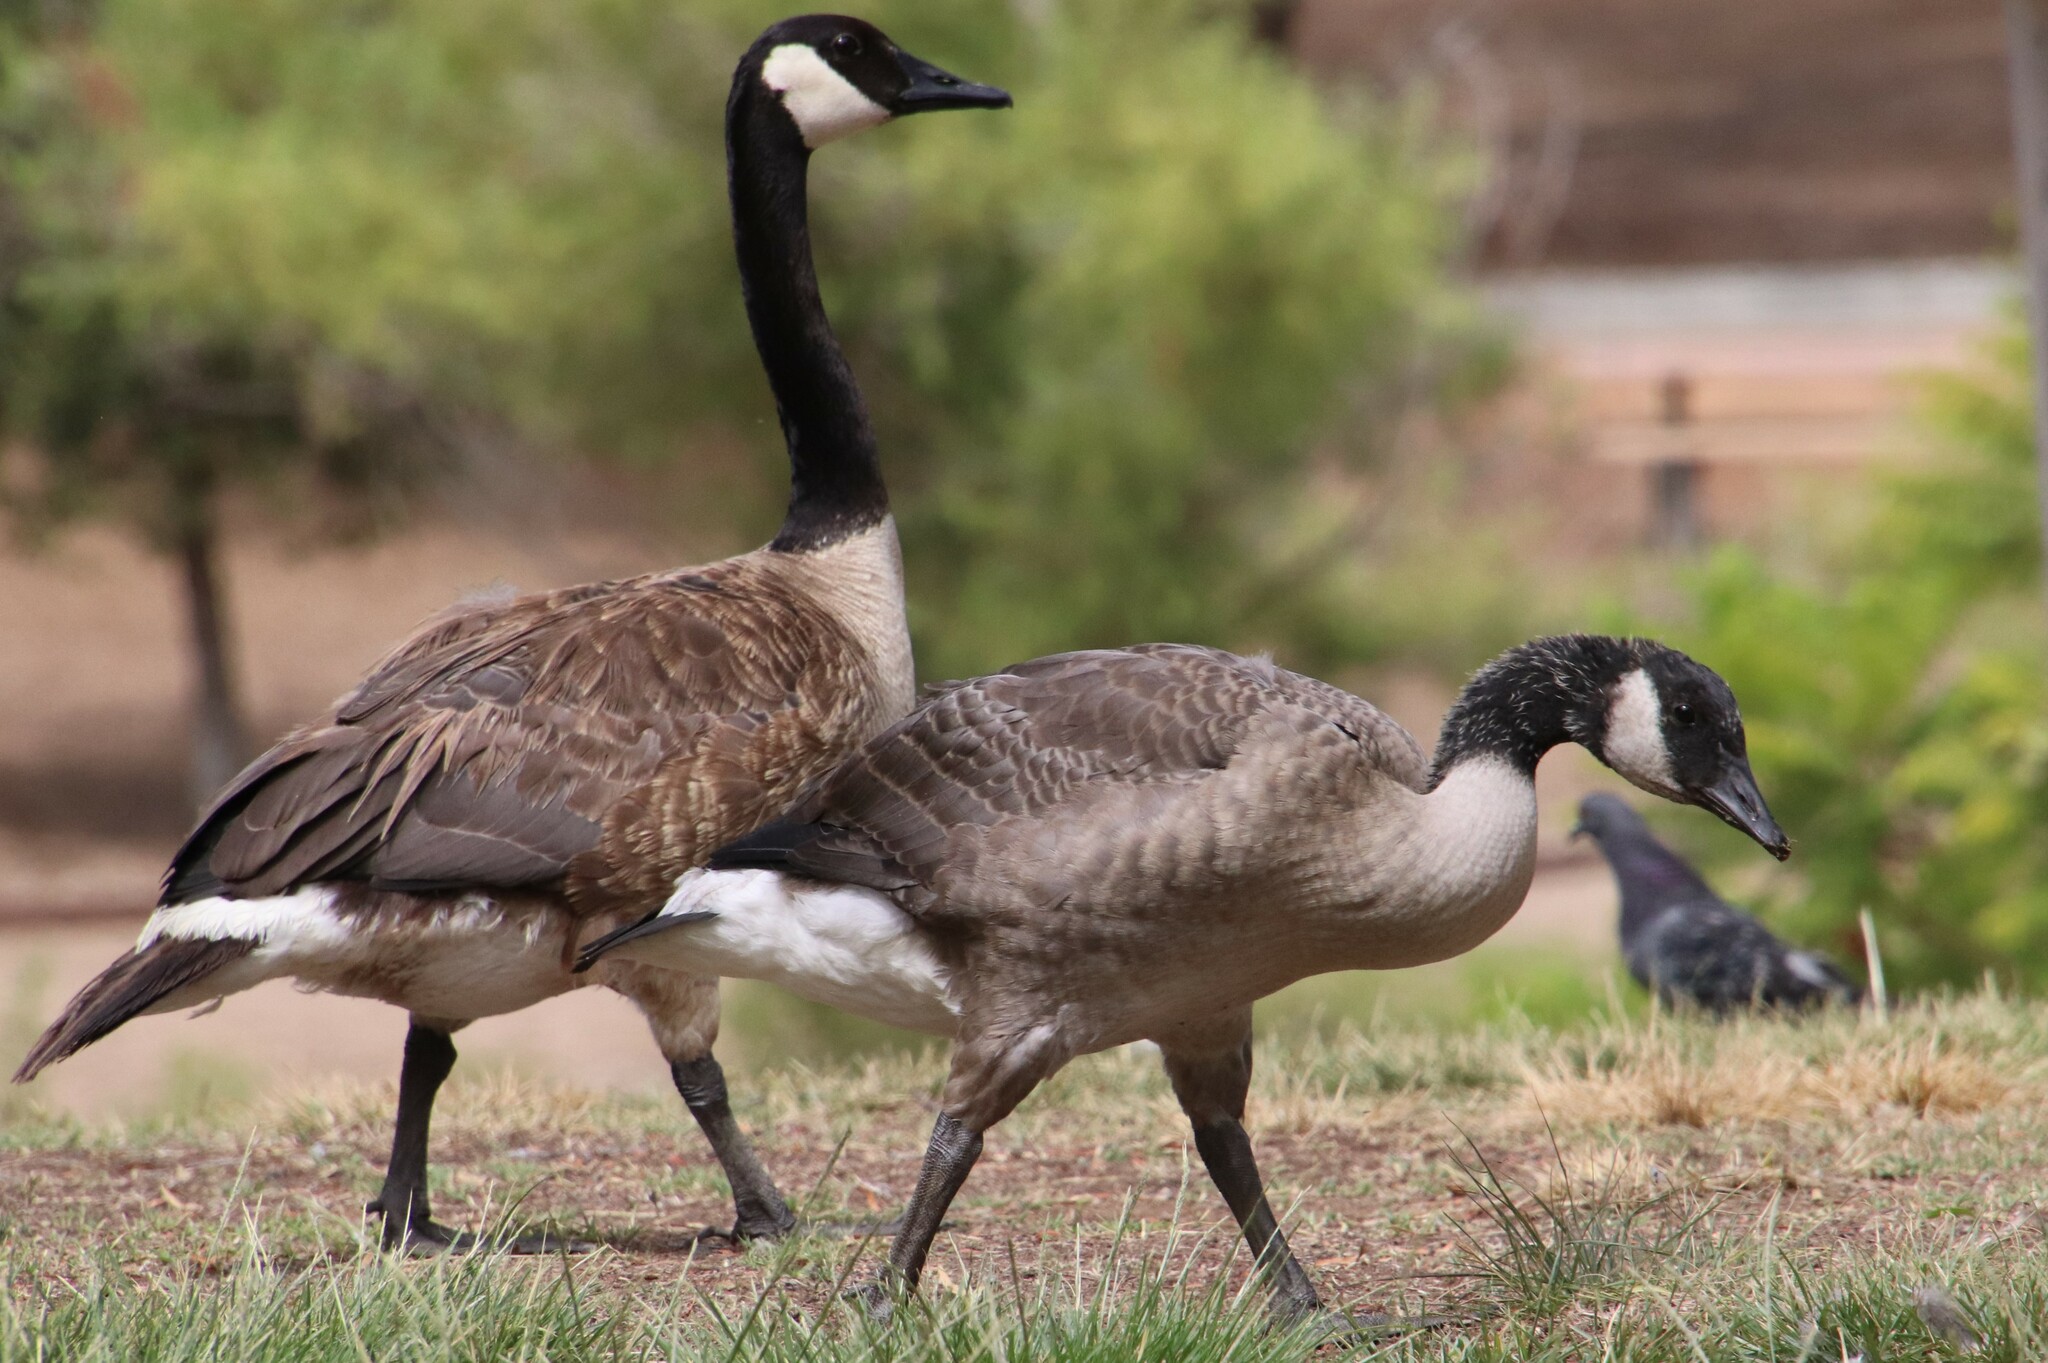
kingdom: Animalia
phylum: Chordata
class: Aves
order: Anseriformes
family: Anatidae
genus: Branta
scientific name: Branta canadensis
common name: Canada goose
